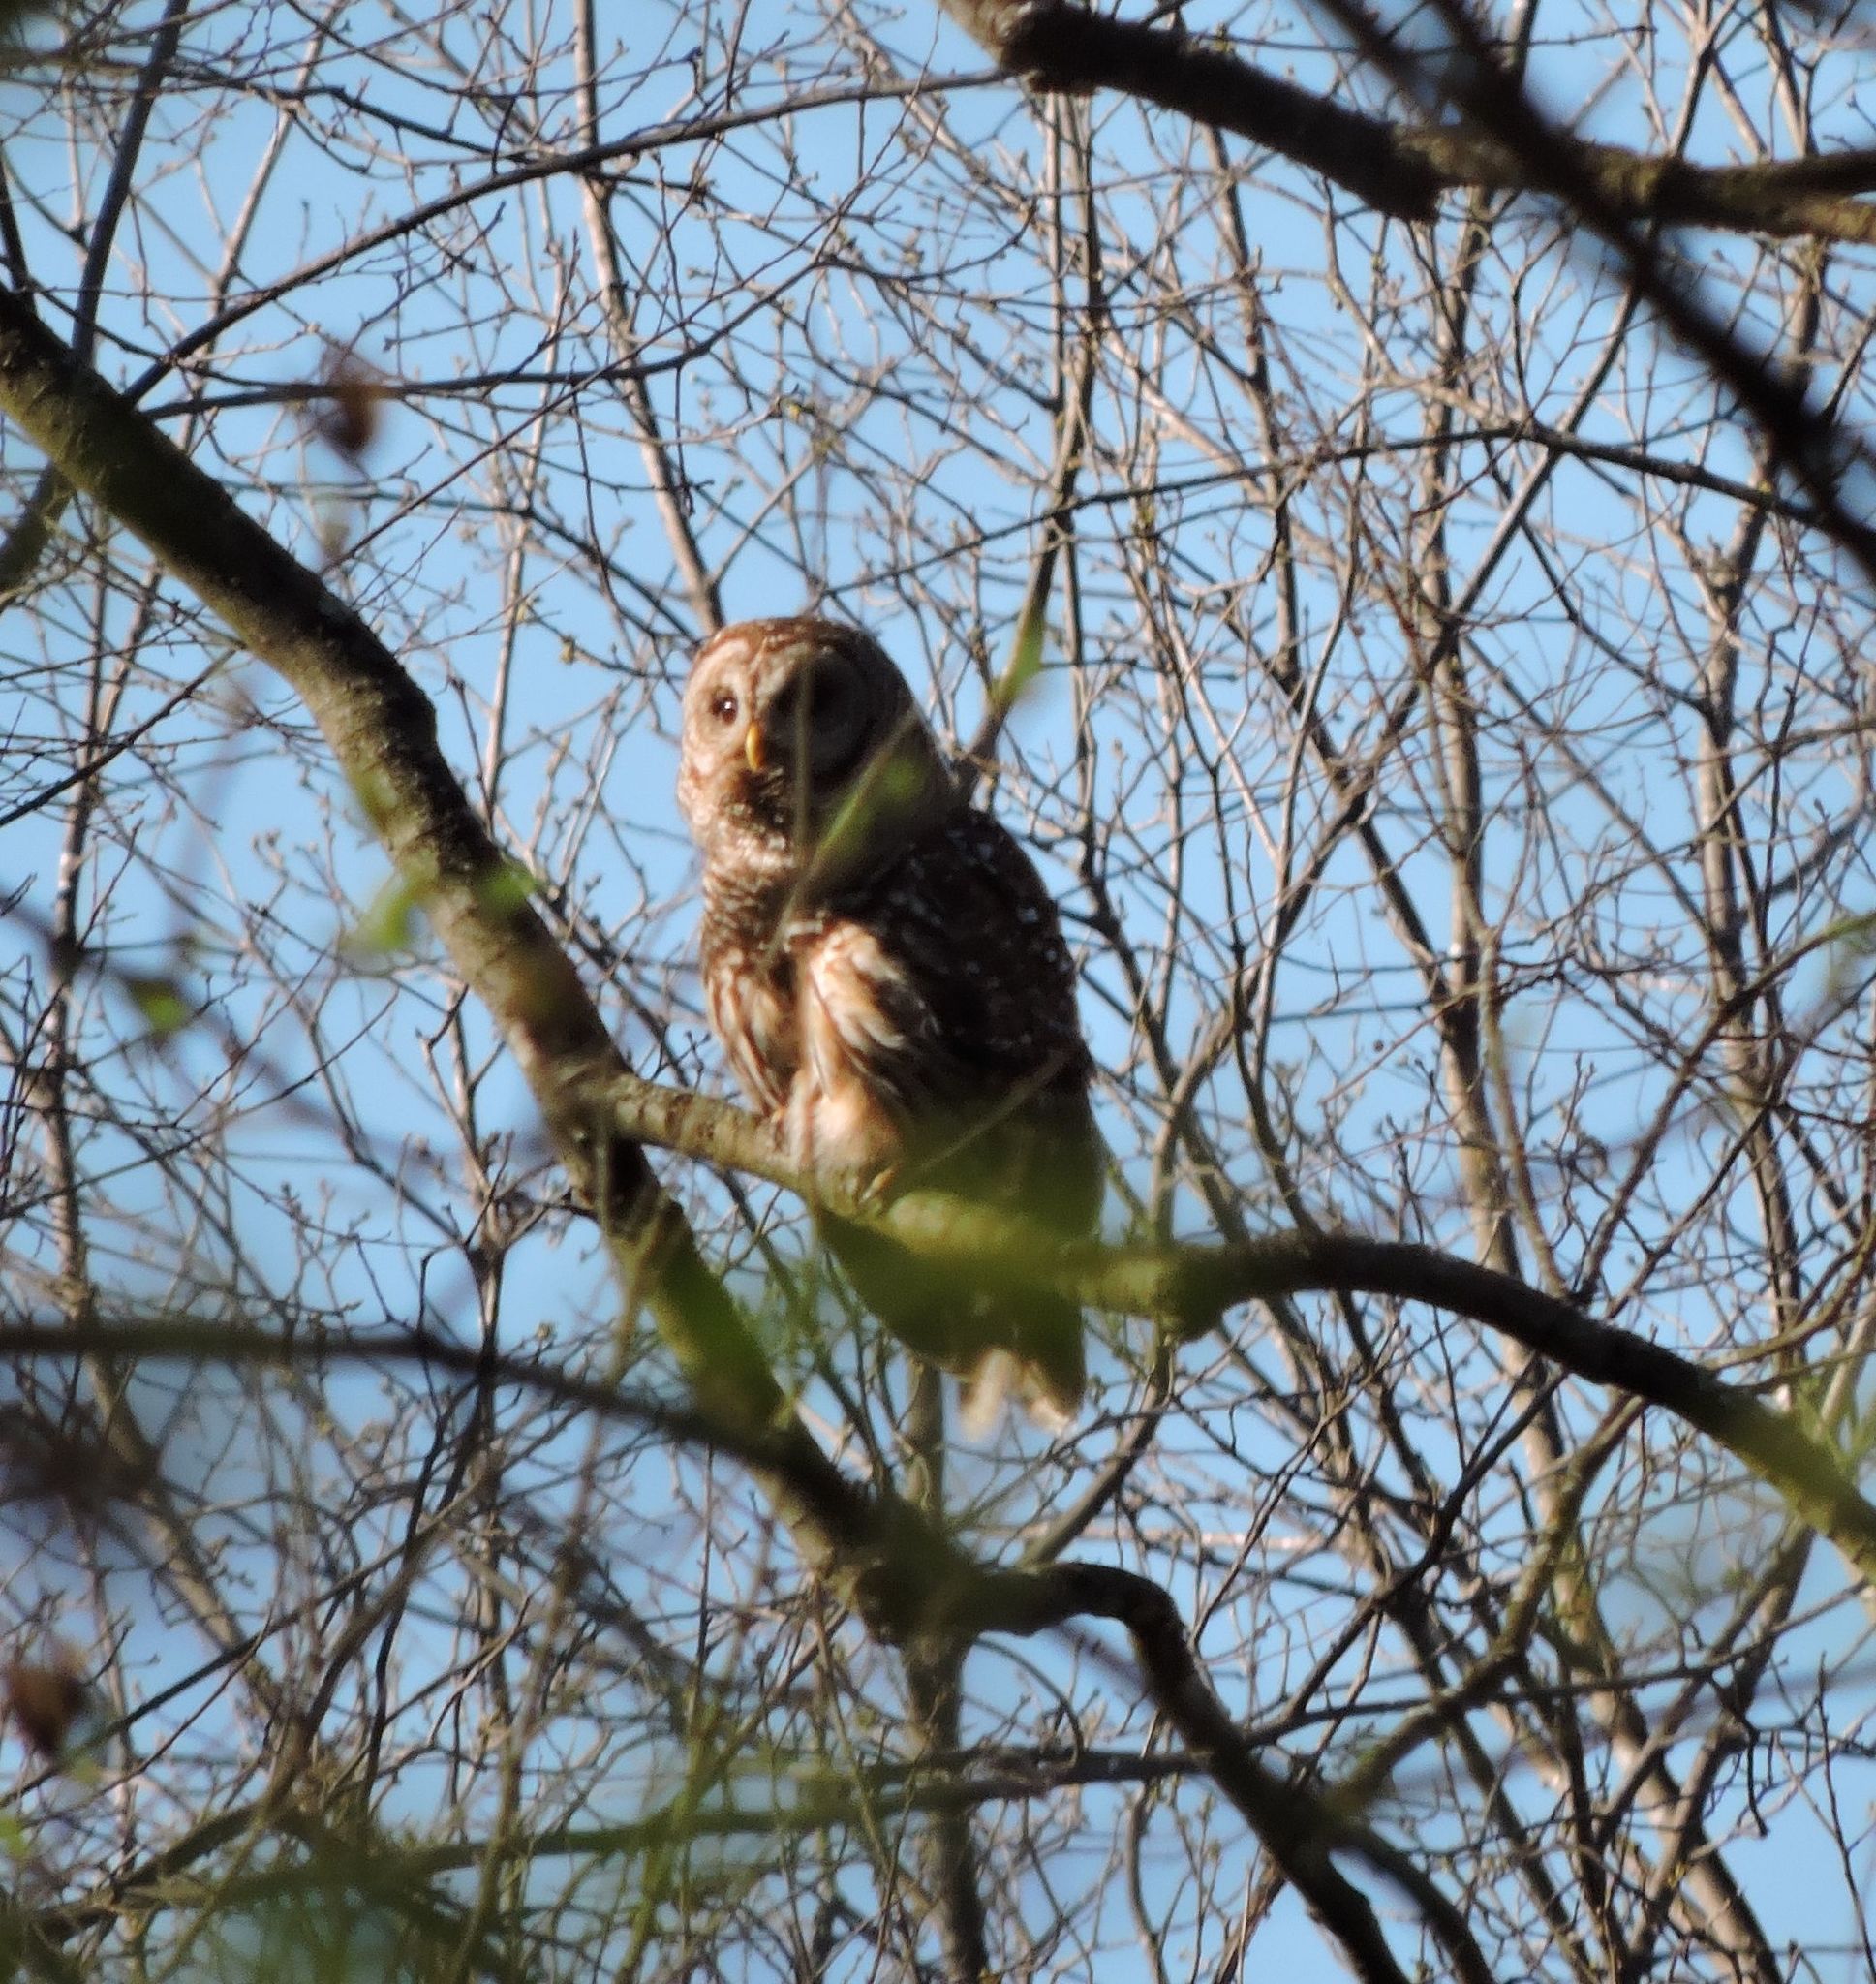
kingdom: Animalia
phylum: Chordata
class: Aves
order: Strigiformes
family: Strigidae
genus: Strix
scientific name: Strix varia
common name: Barred owl
